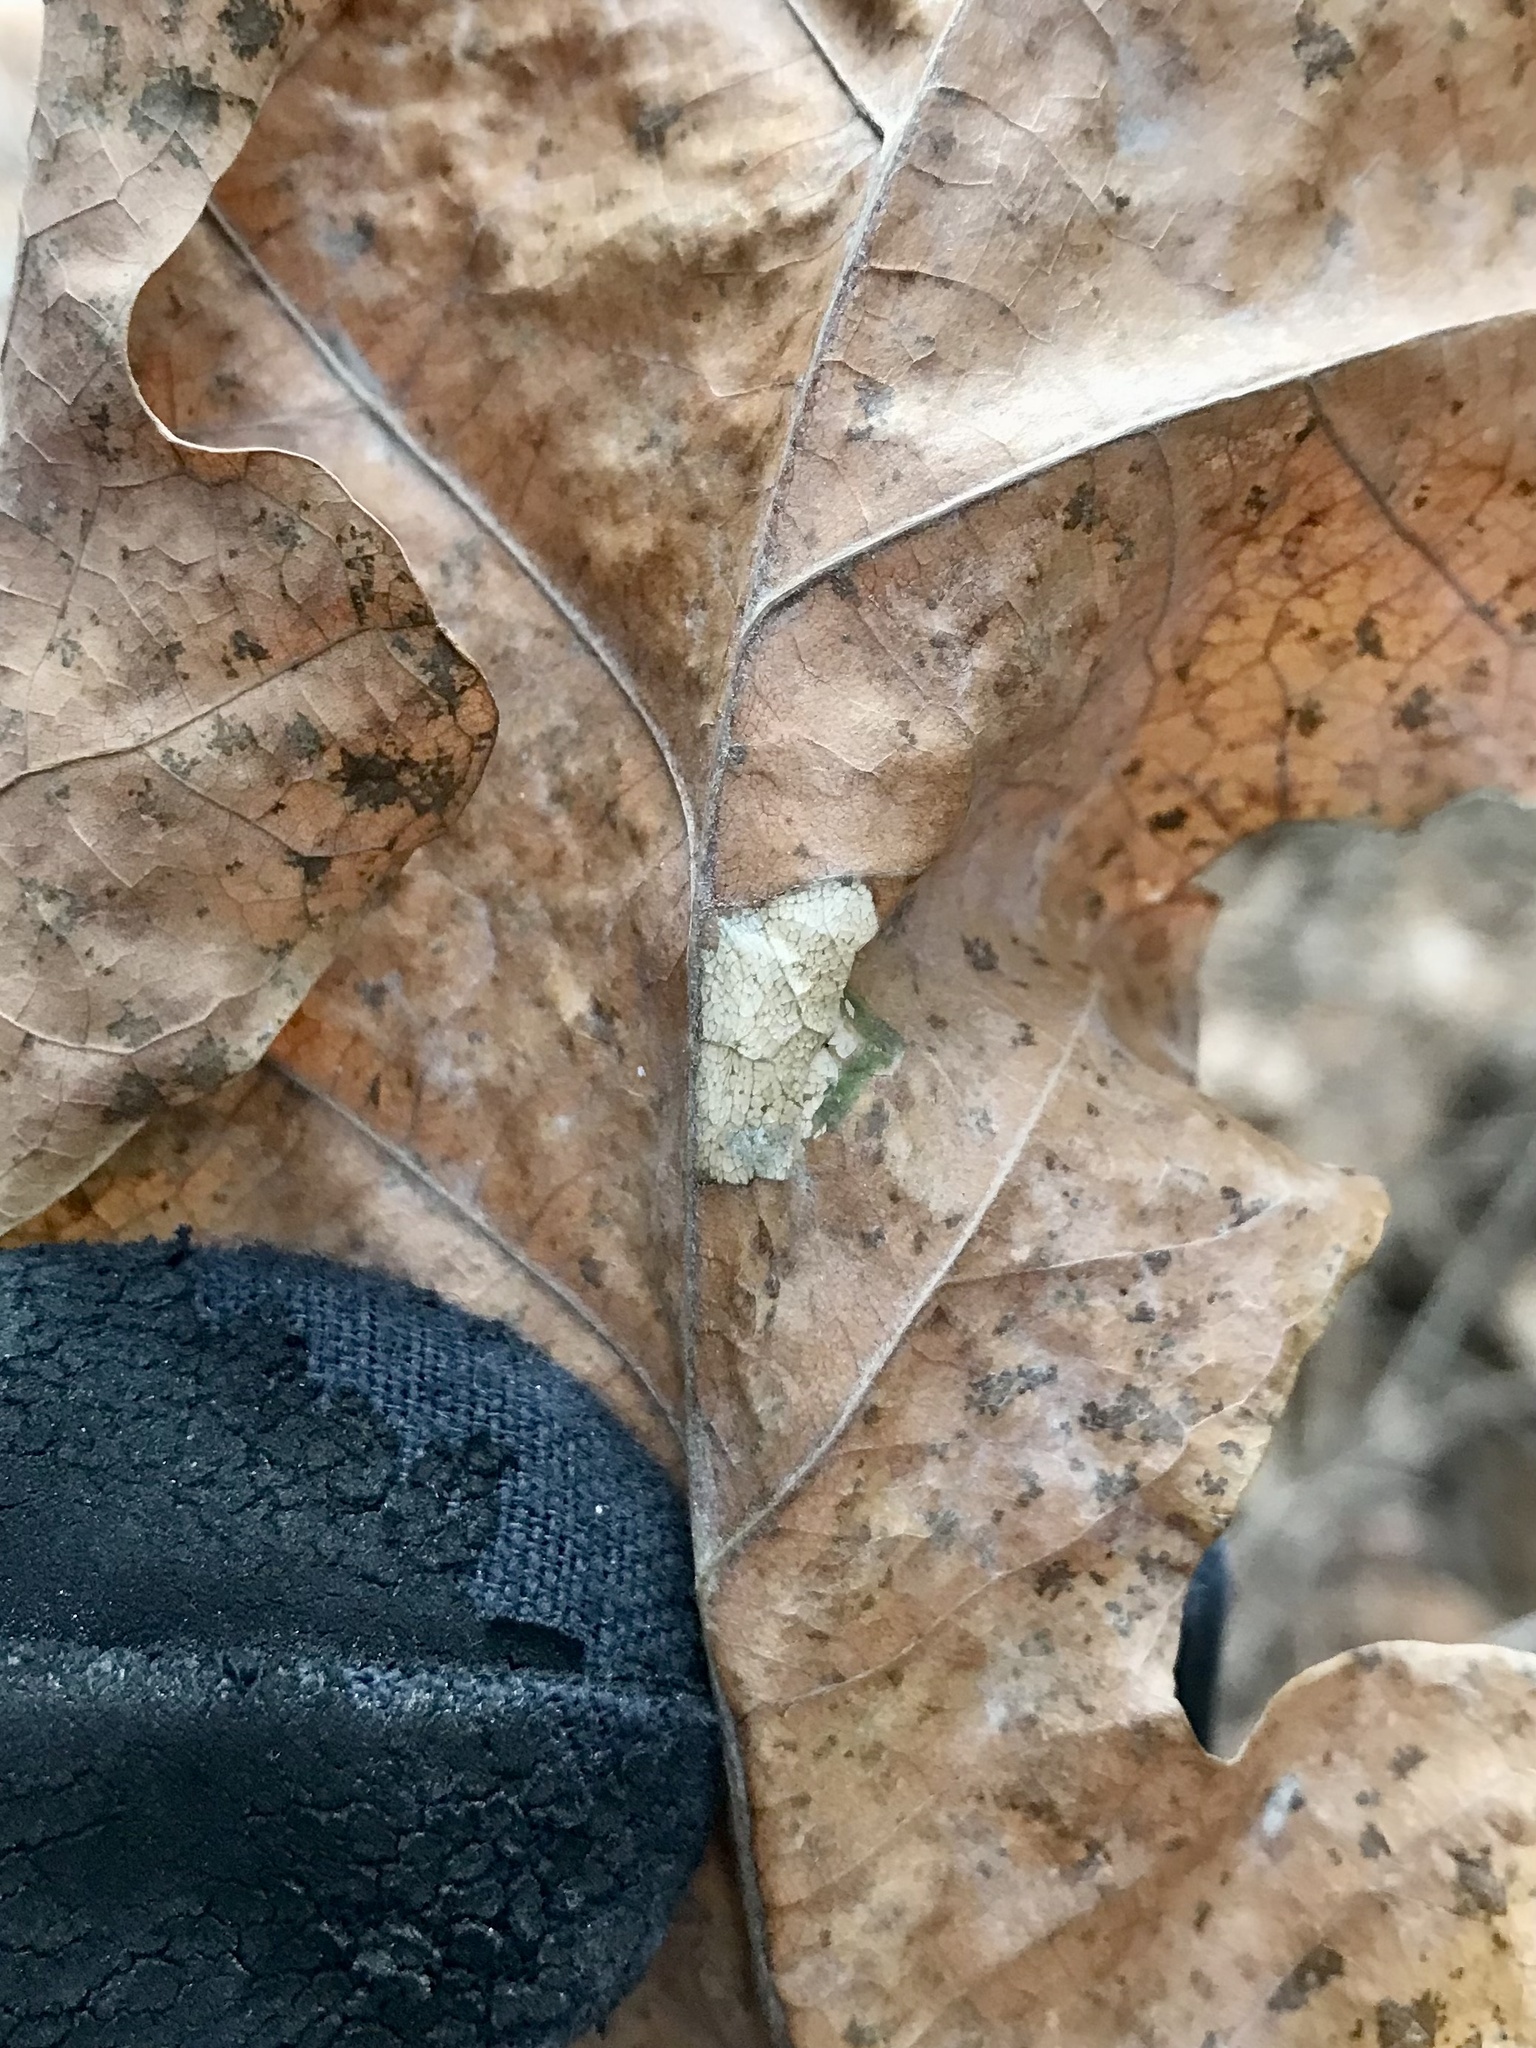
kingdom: Animalia
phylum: Arthropoda
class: Insecta
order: Lepidoptera
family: Gracillariidae
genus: Phyllonorycter
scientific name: Phyllonorycter fitchella
